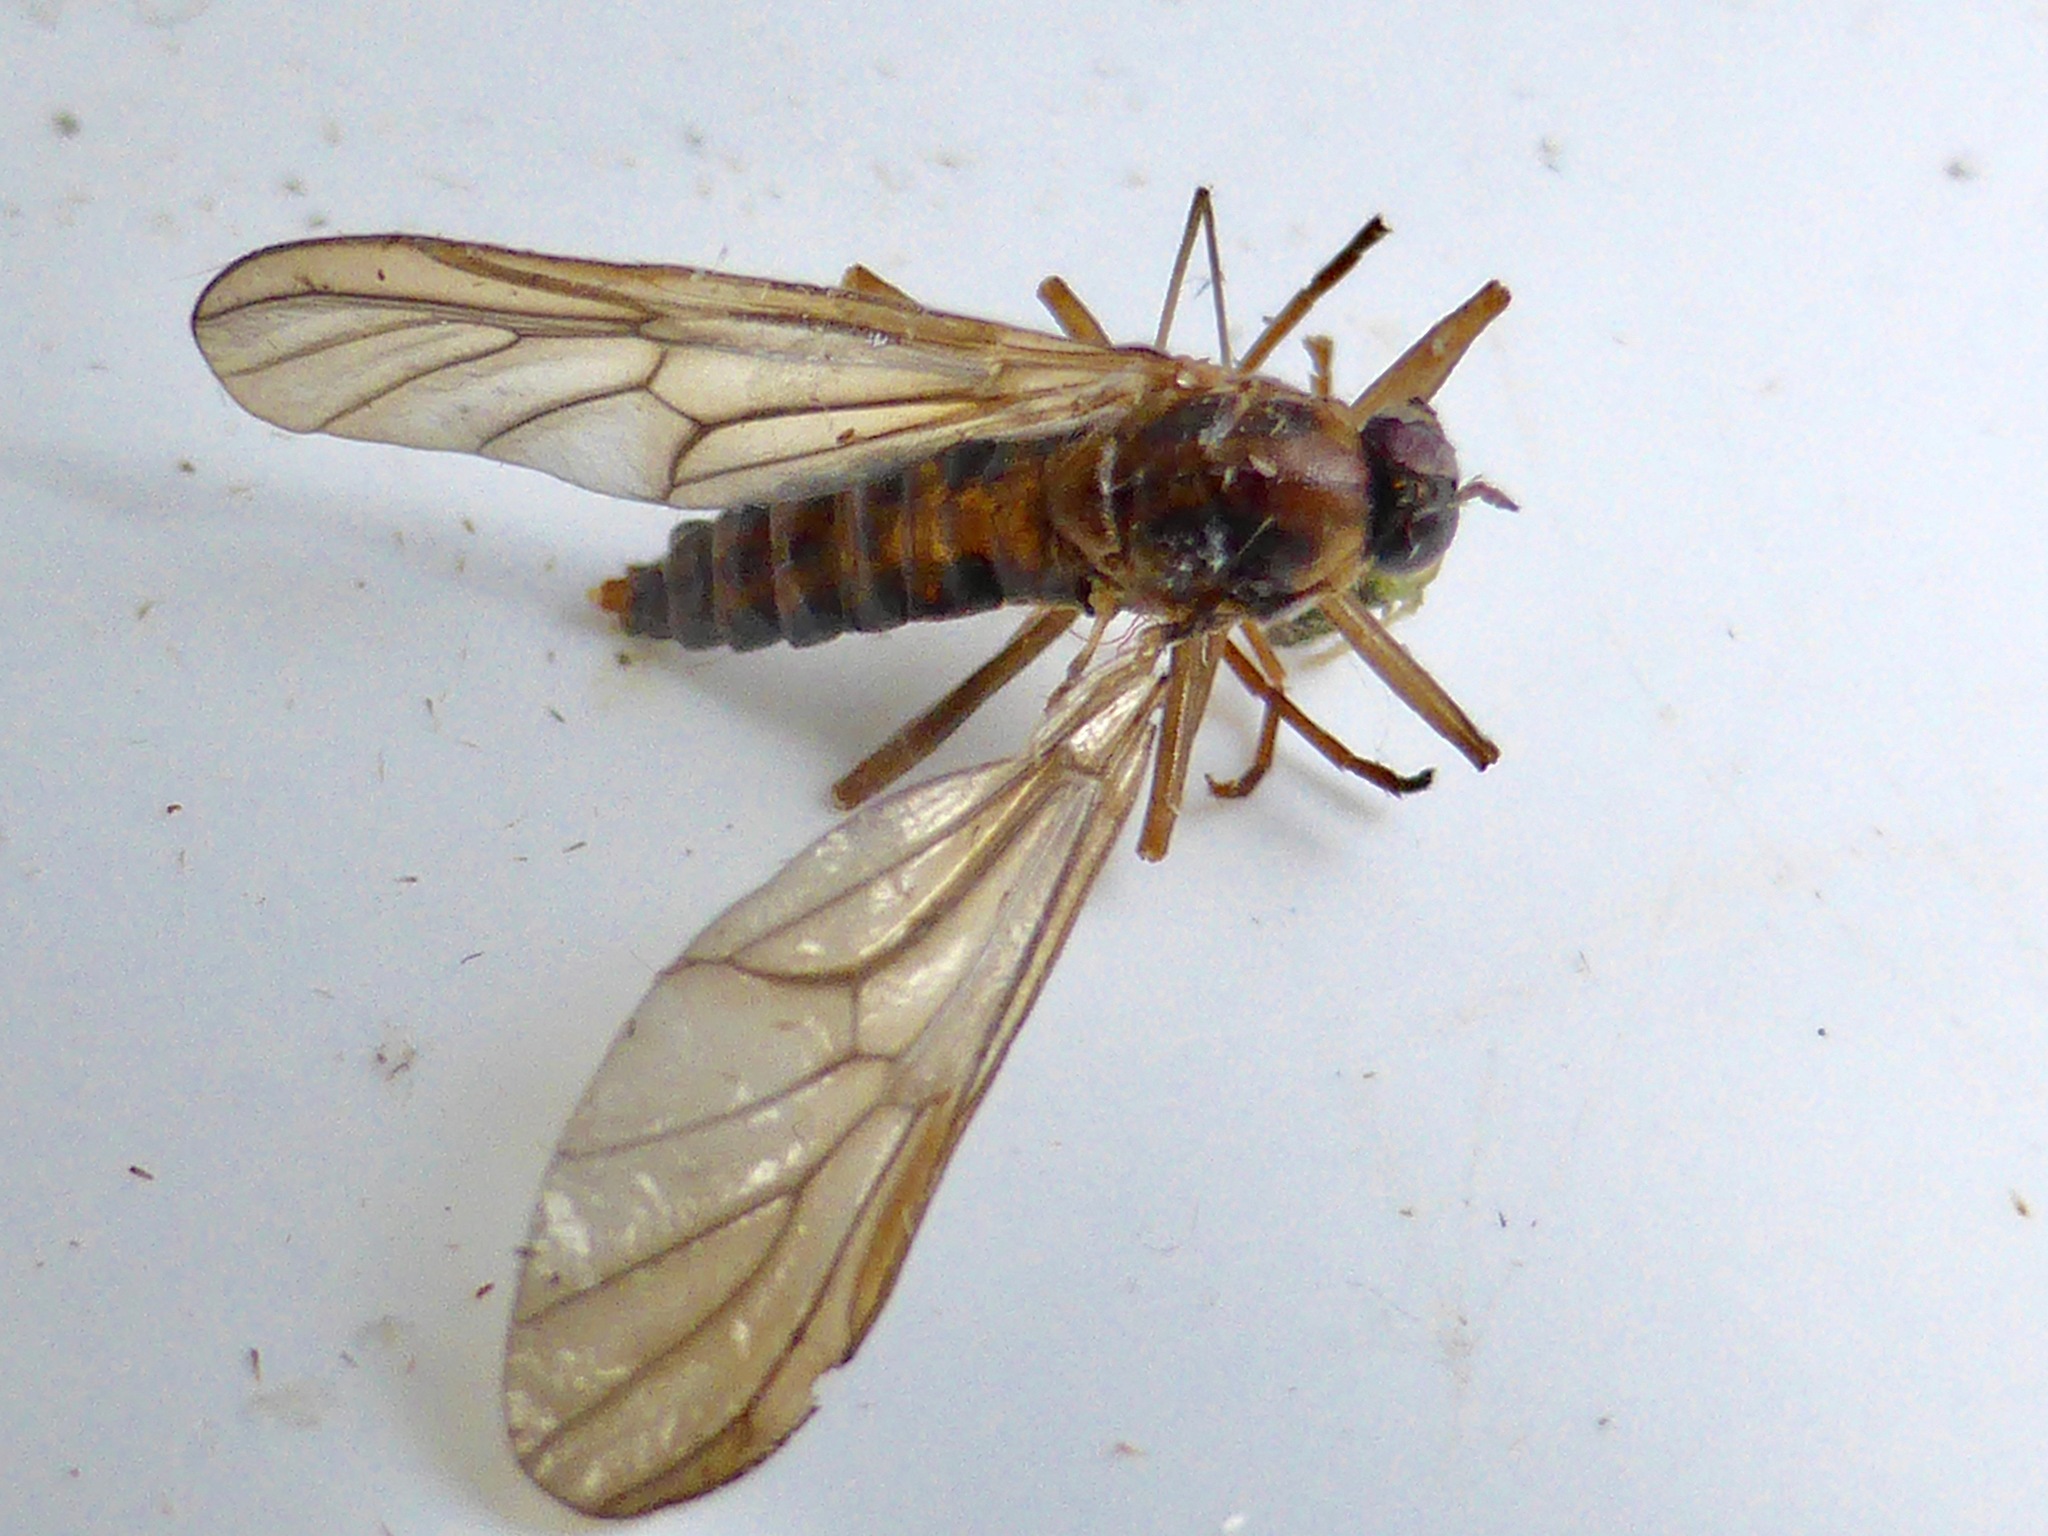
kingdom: Animalia
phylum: Arthropoda
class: Insecta
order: Diptera
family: Stratiomyidae
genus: Boreoides
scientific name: Boreoides tasmaniensis
